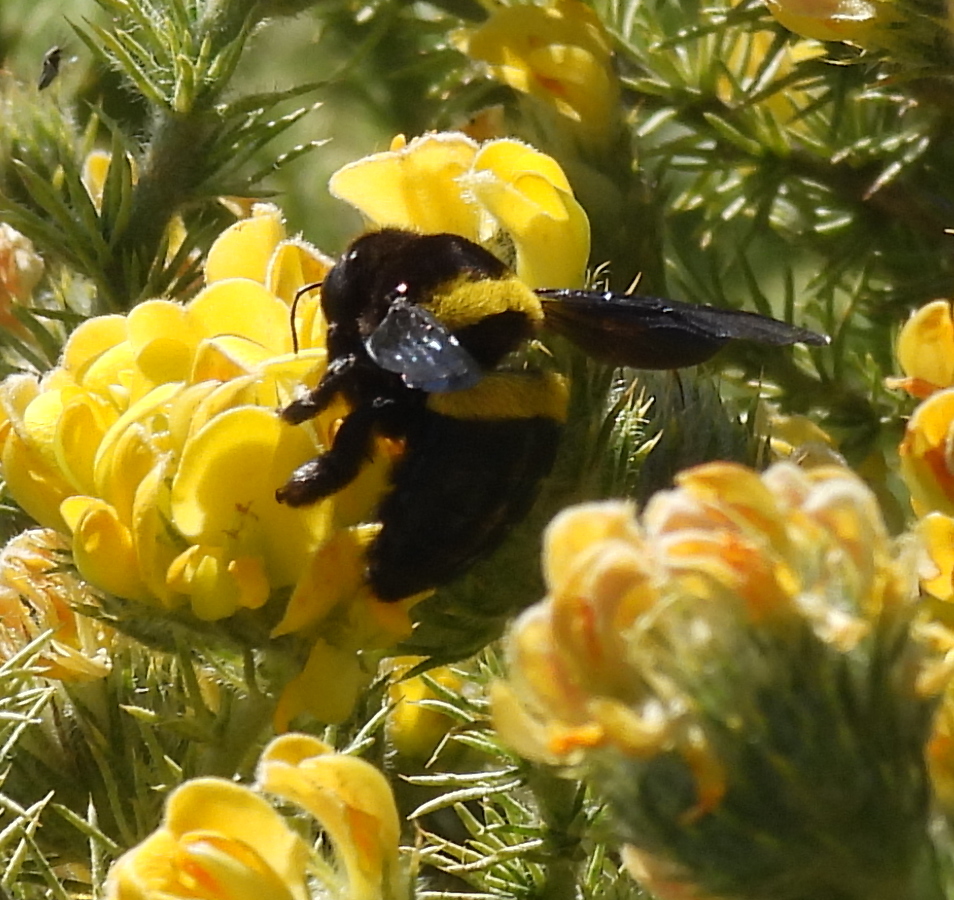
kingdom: Animalia
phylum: Arthropoda
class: Insecta
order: Hymenoptera
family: Apidae
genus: Xylocopa
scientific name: Xylocopa caffra
